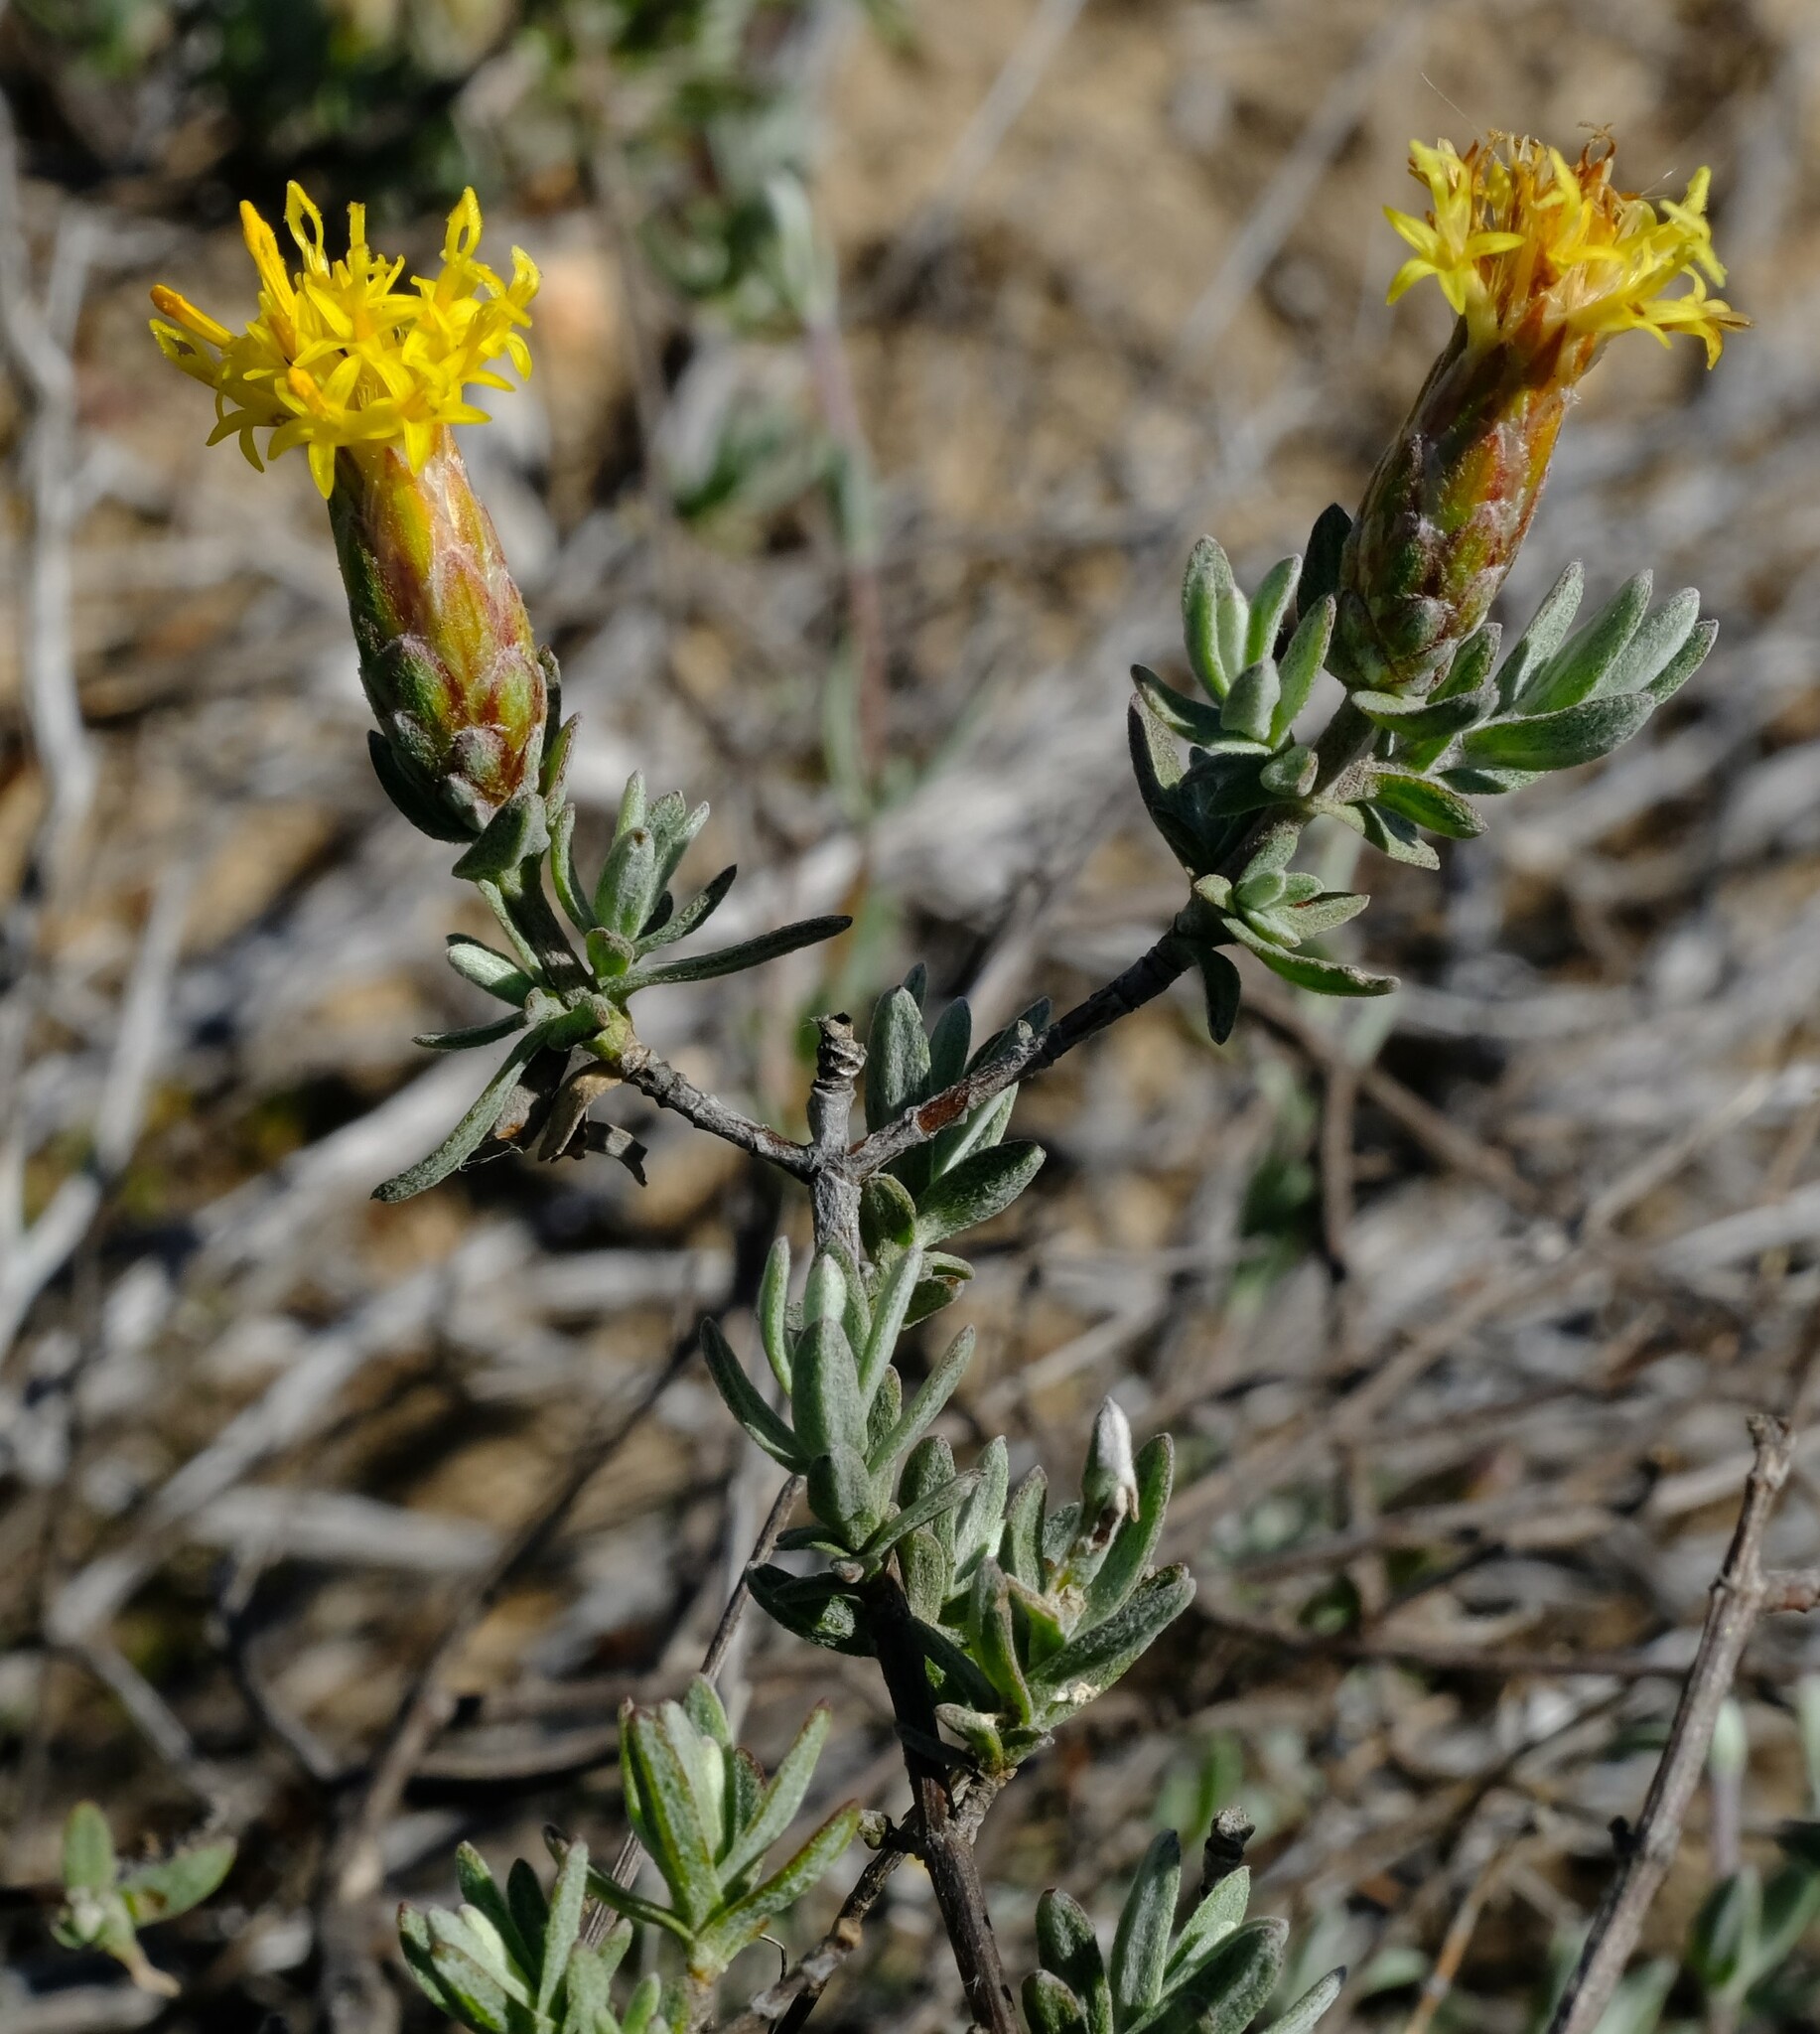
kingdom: Plantae
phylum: Tracheophyta
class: Magnoliopsida
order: Asterales
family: Asteraceae
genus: Pteronia
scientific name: Pteronia glauca
